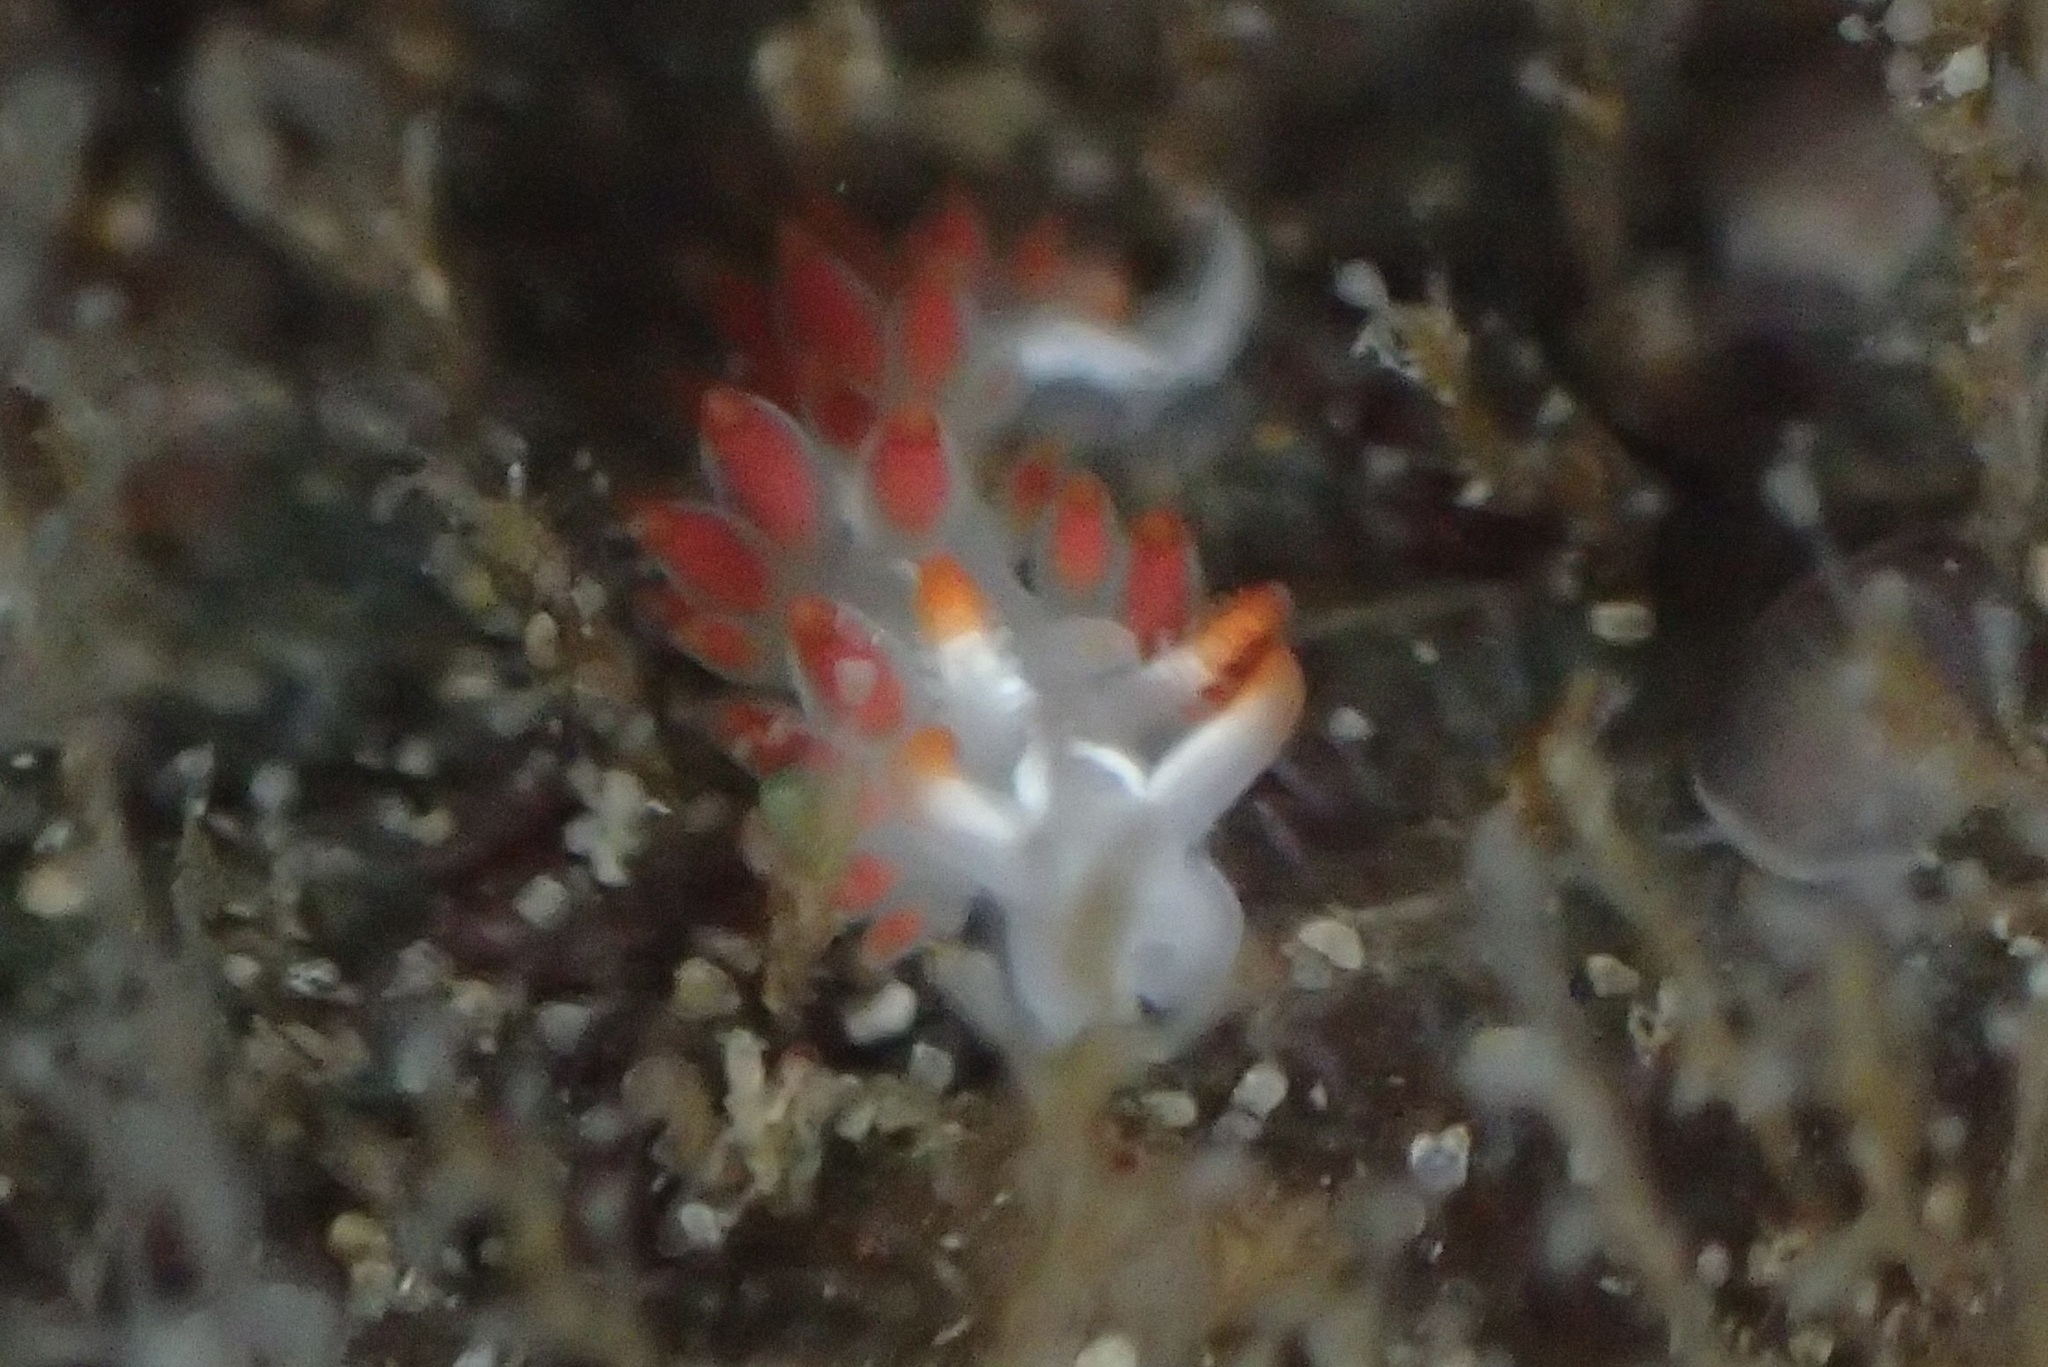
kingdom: Animalia
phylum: Mollusca
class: Gastropoda
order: Nudibranchia
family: Coryphellidae
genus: Coryphella
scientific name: Coryphella trilineata
